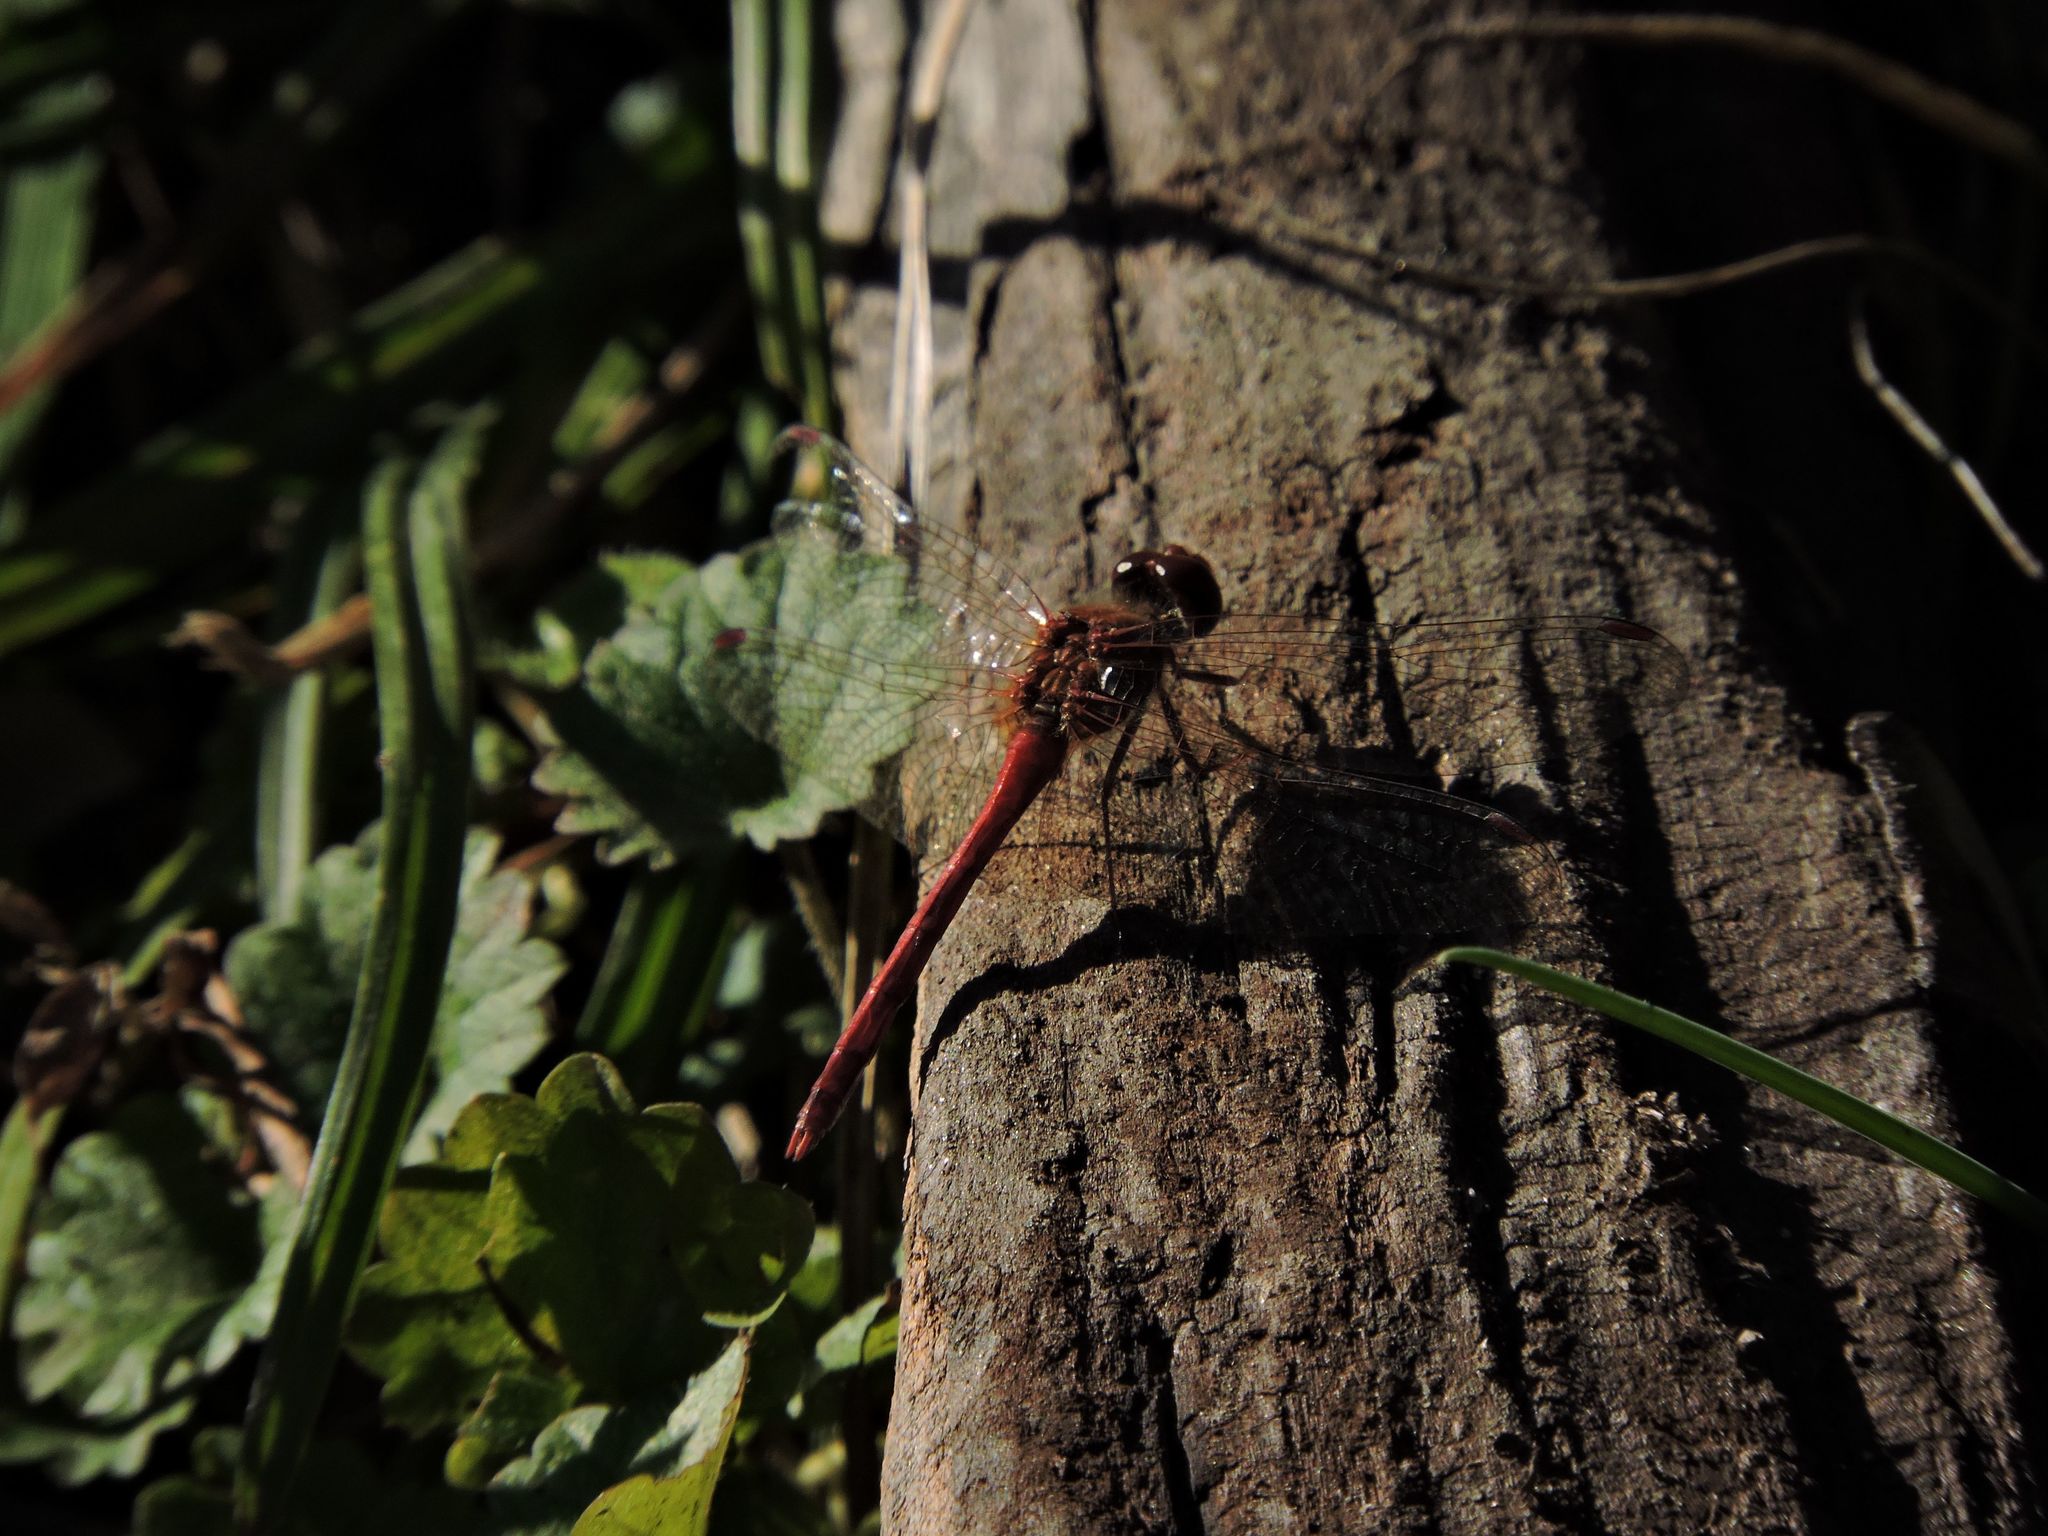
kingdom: Animalia
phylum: Arthropoda
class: Insecta
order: Odonata
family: Libellulidae
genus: Sympetrum
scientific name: Sympetrum vicinum
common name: Autumn meadowhawk
